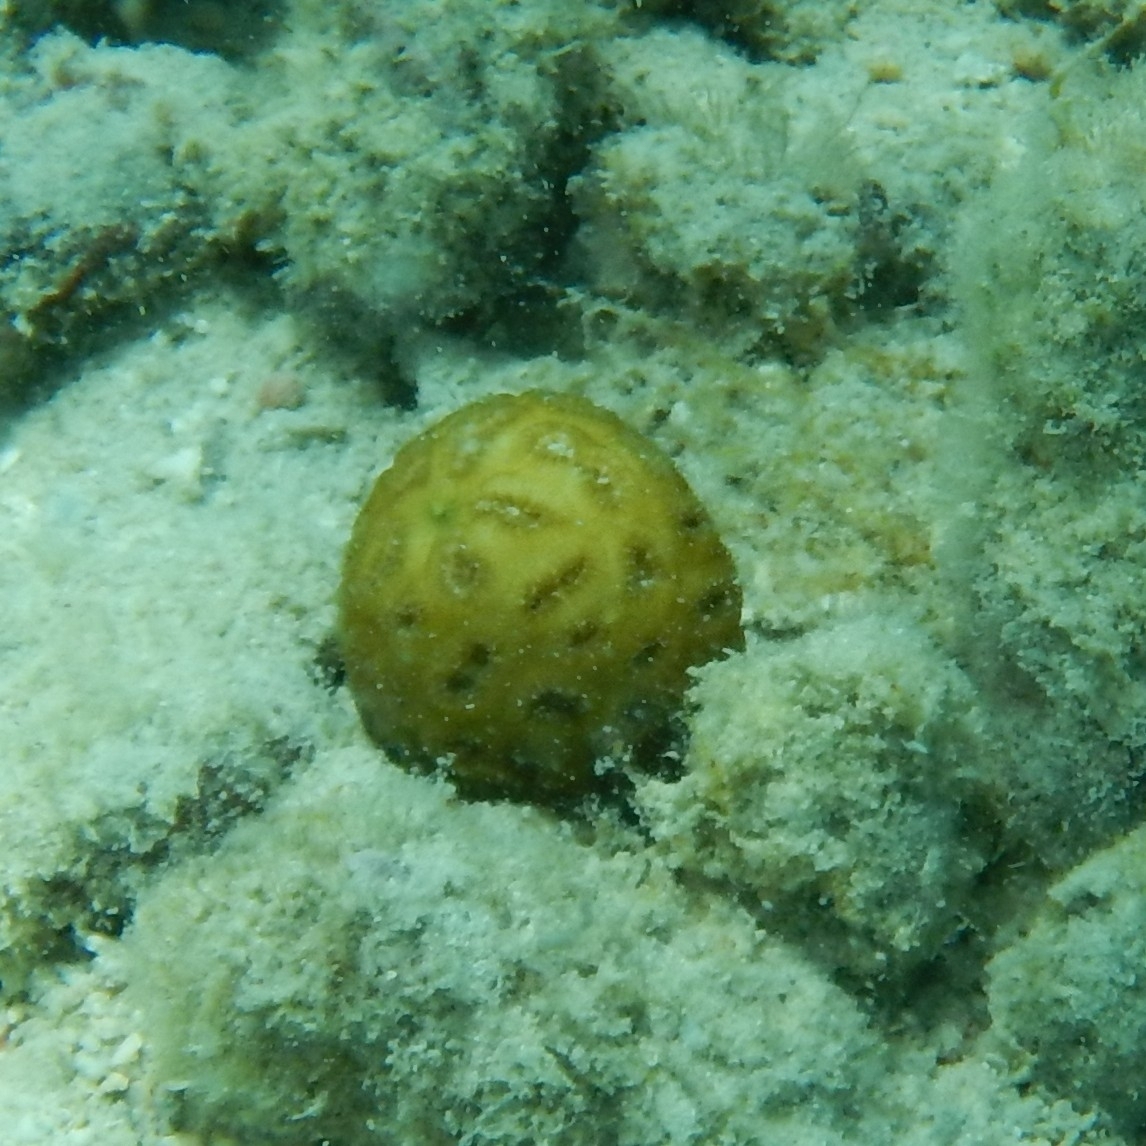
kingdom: Animalia
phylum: Cnidaria
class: Anthozoa
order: Scleractinia
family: Faviidae
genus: Favia
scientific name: Favia fragum
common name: Golfball coral
